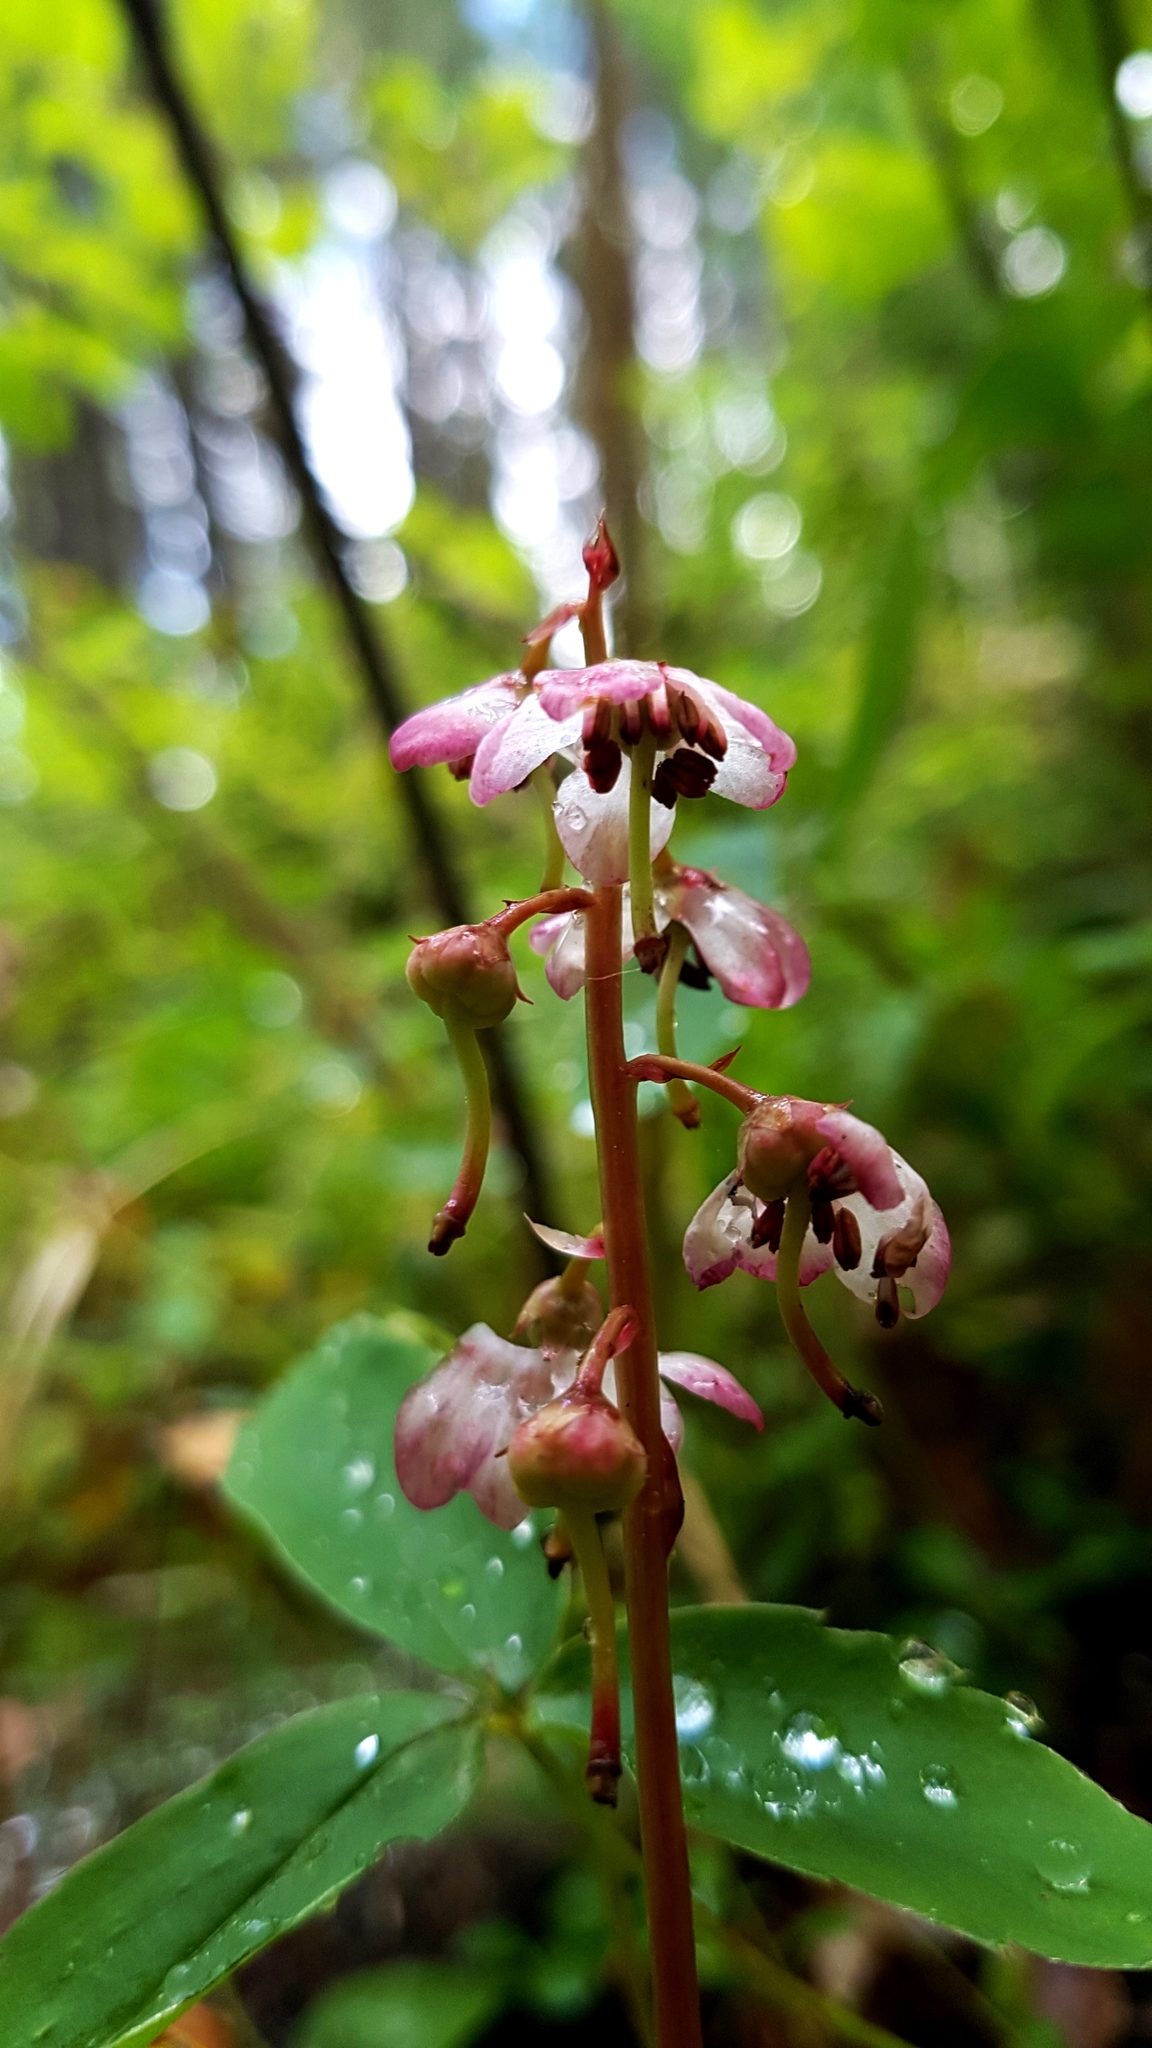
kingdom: Plantae
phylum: Tracheophyta
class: Magnoliopsida
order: Ericales
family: Ericaceae
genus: Pyrola
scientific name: Pyrola asarifolia
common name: Bog wintergreen
